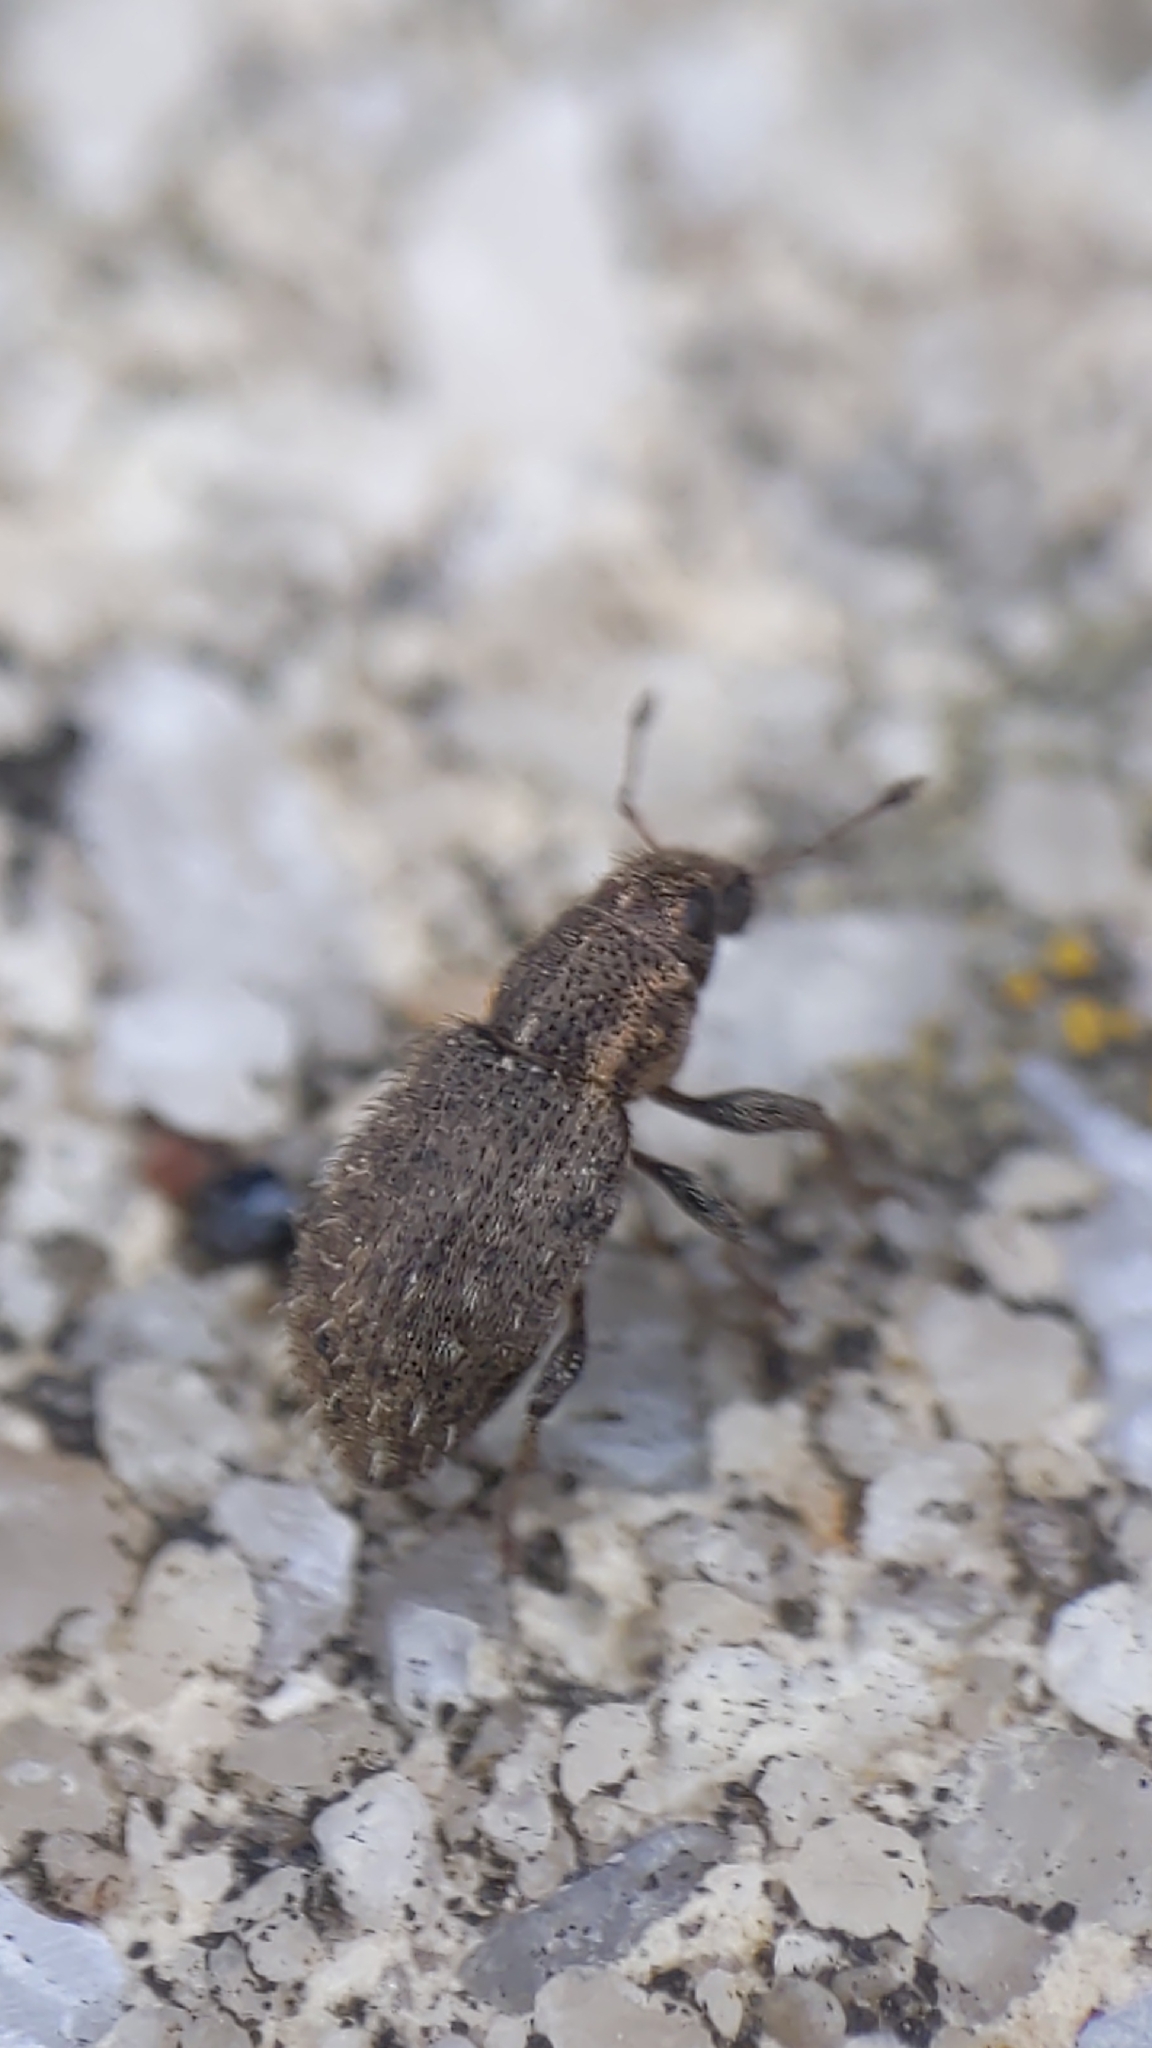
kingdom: Animalia
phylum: Arthropoda
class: Insecta
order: Coleoptera
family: Curculionidae
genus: Sitona
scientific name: Sitona hispidulus
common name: Clover weevil
